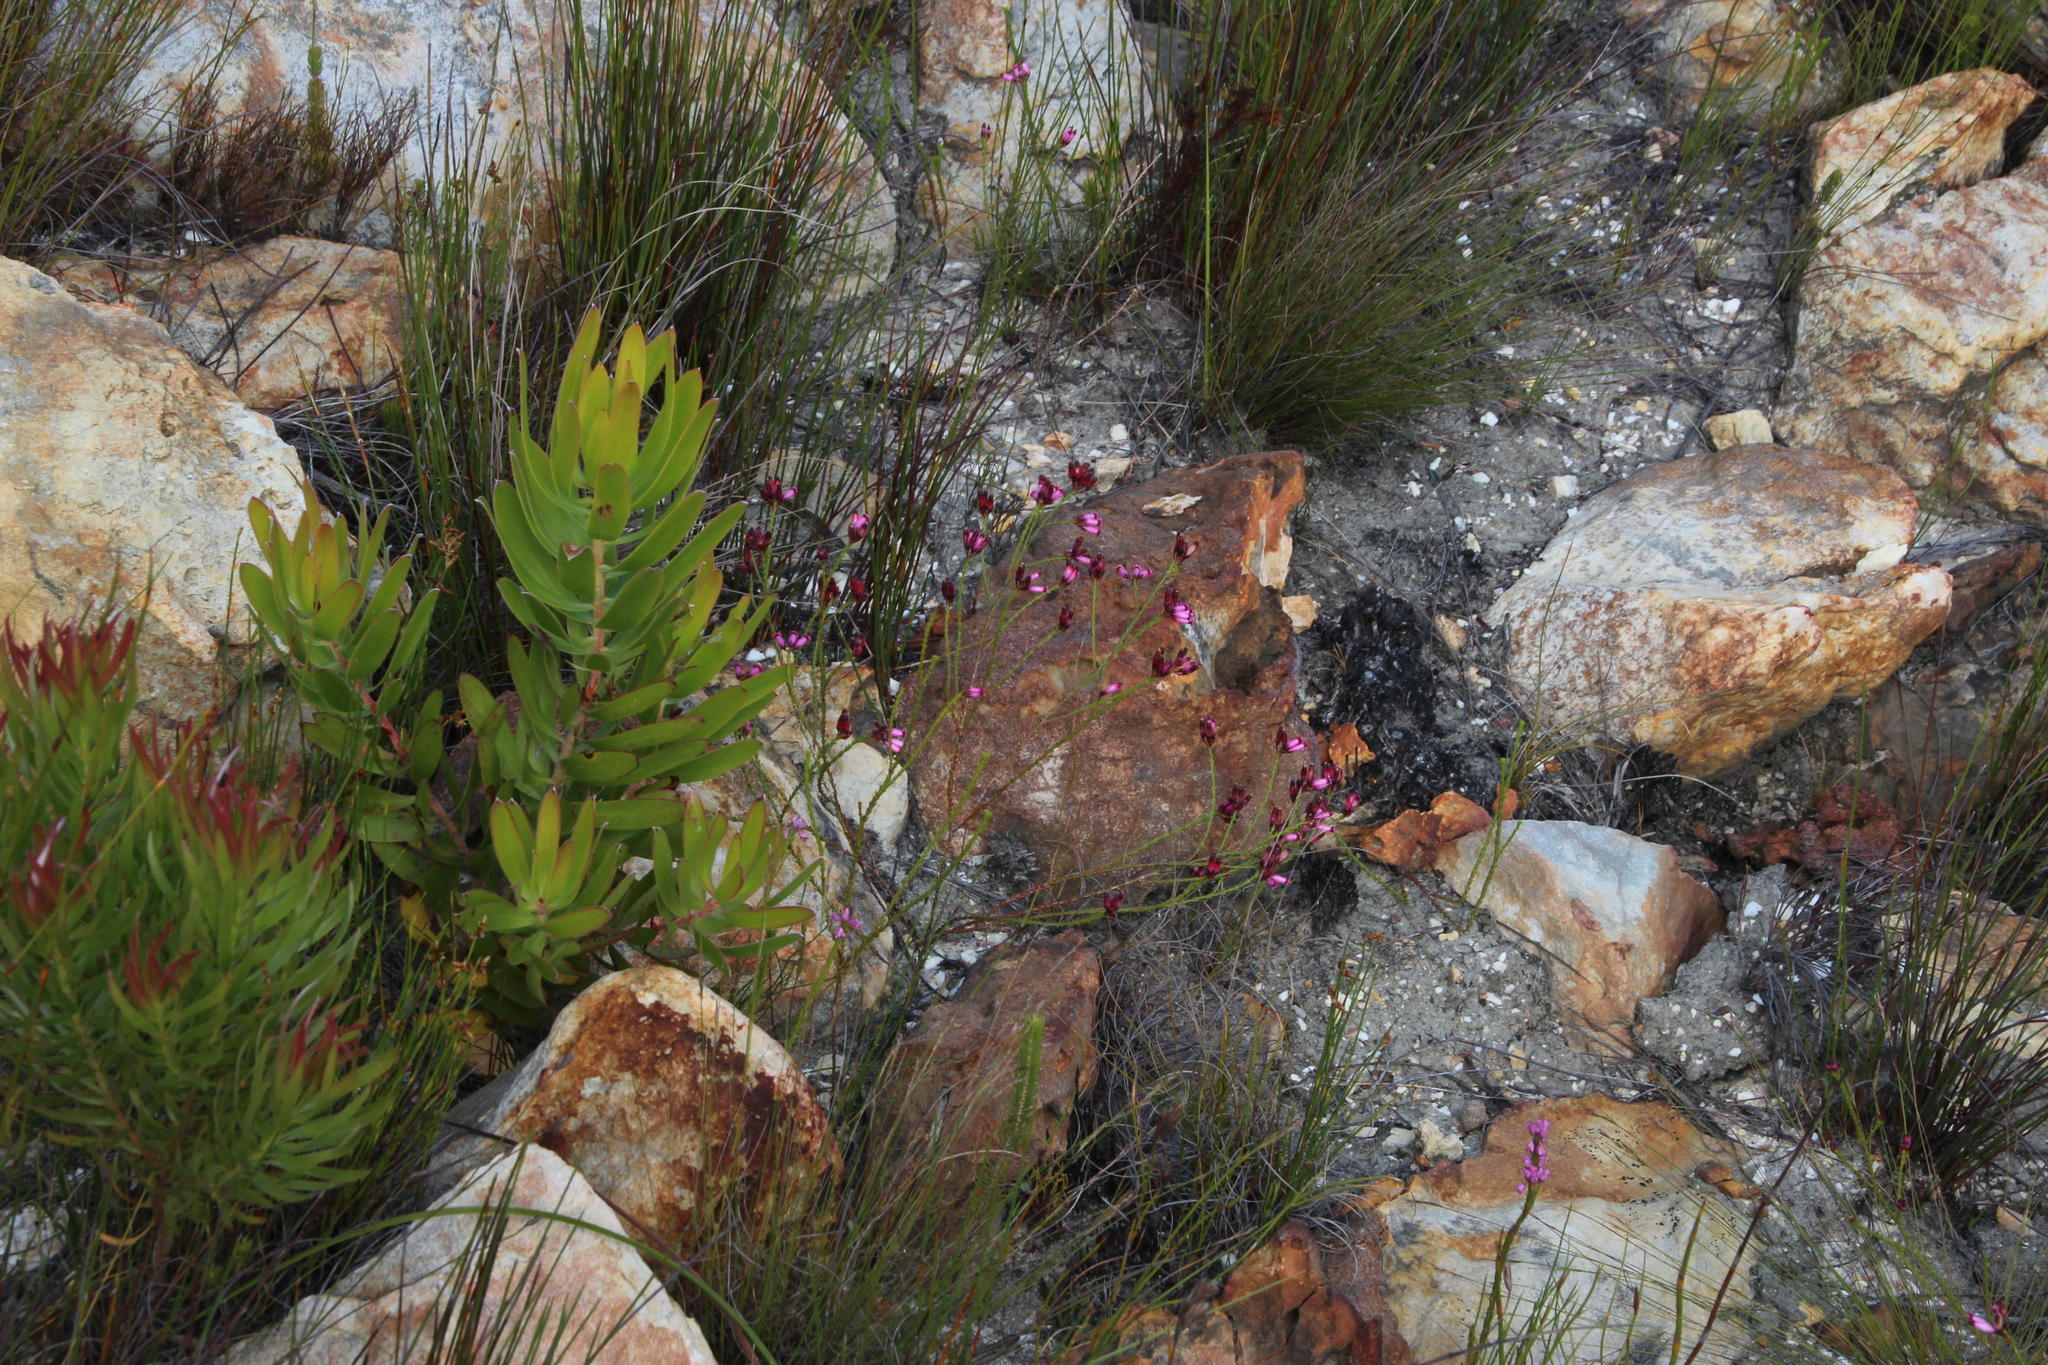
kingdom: Plantae
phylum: Tracheophyta
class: Magnoliopsida
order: Ericales
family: Ericaceae
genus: Erica
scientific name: Erica cristata
